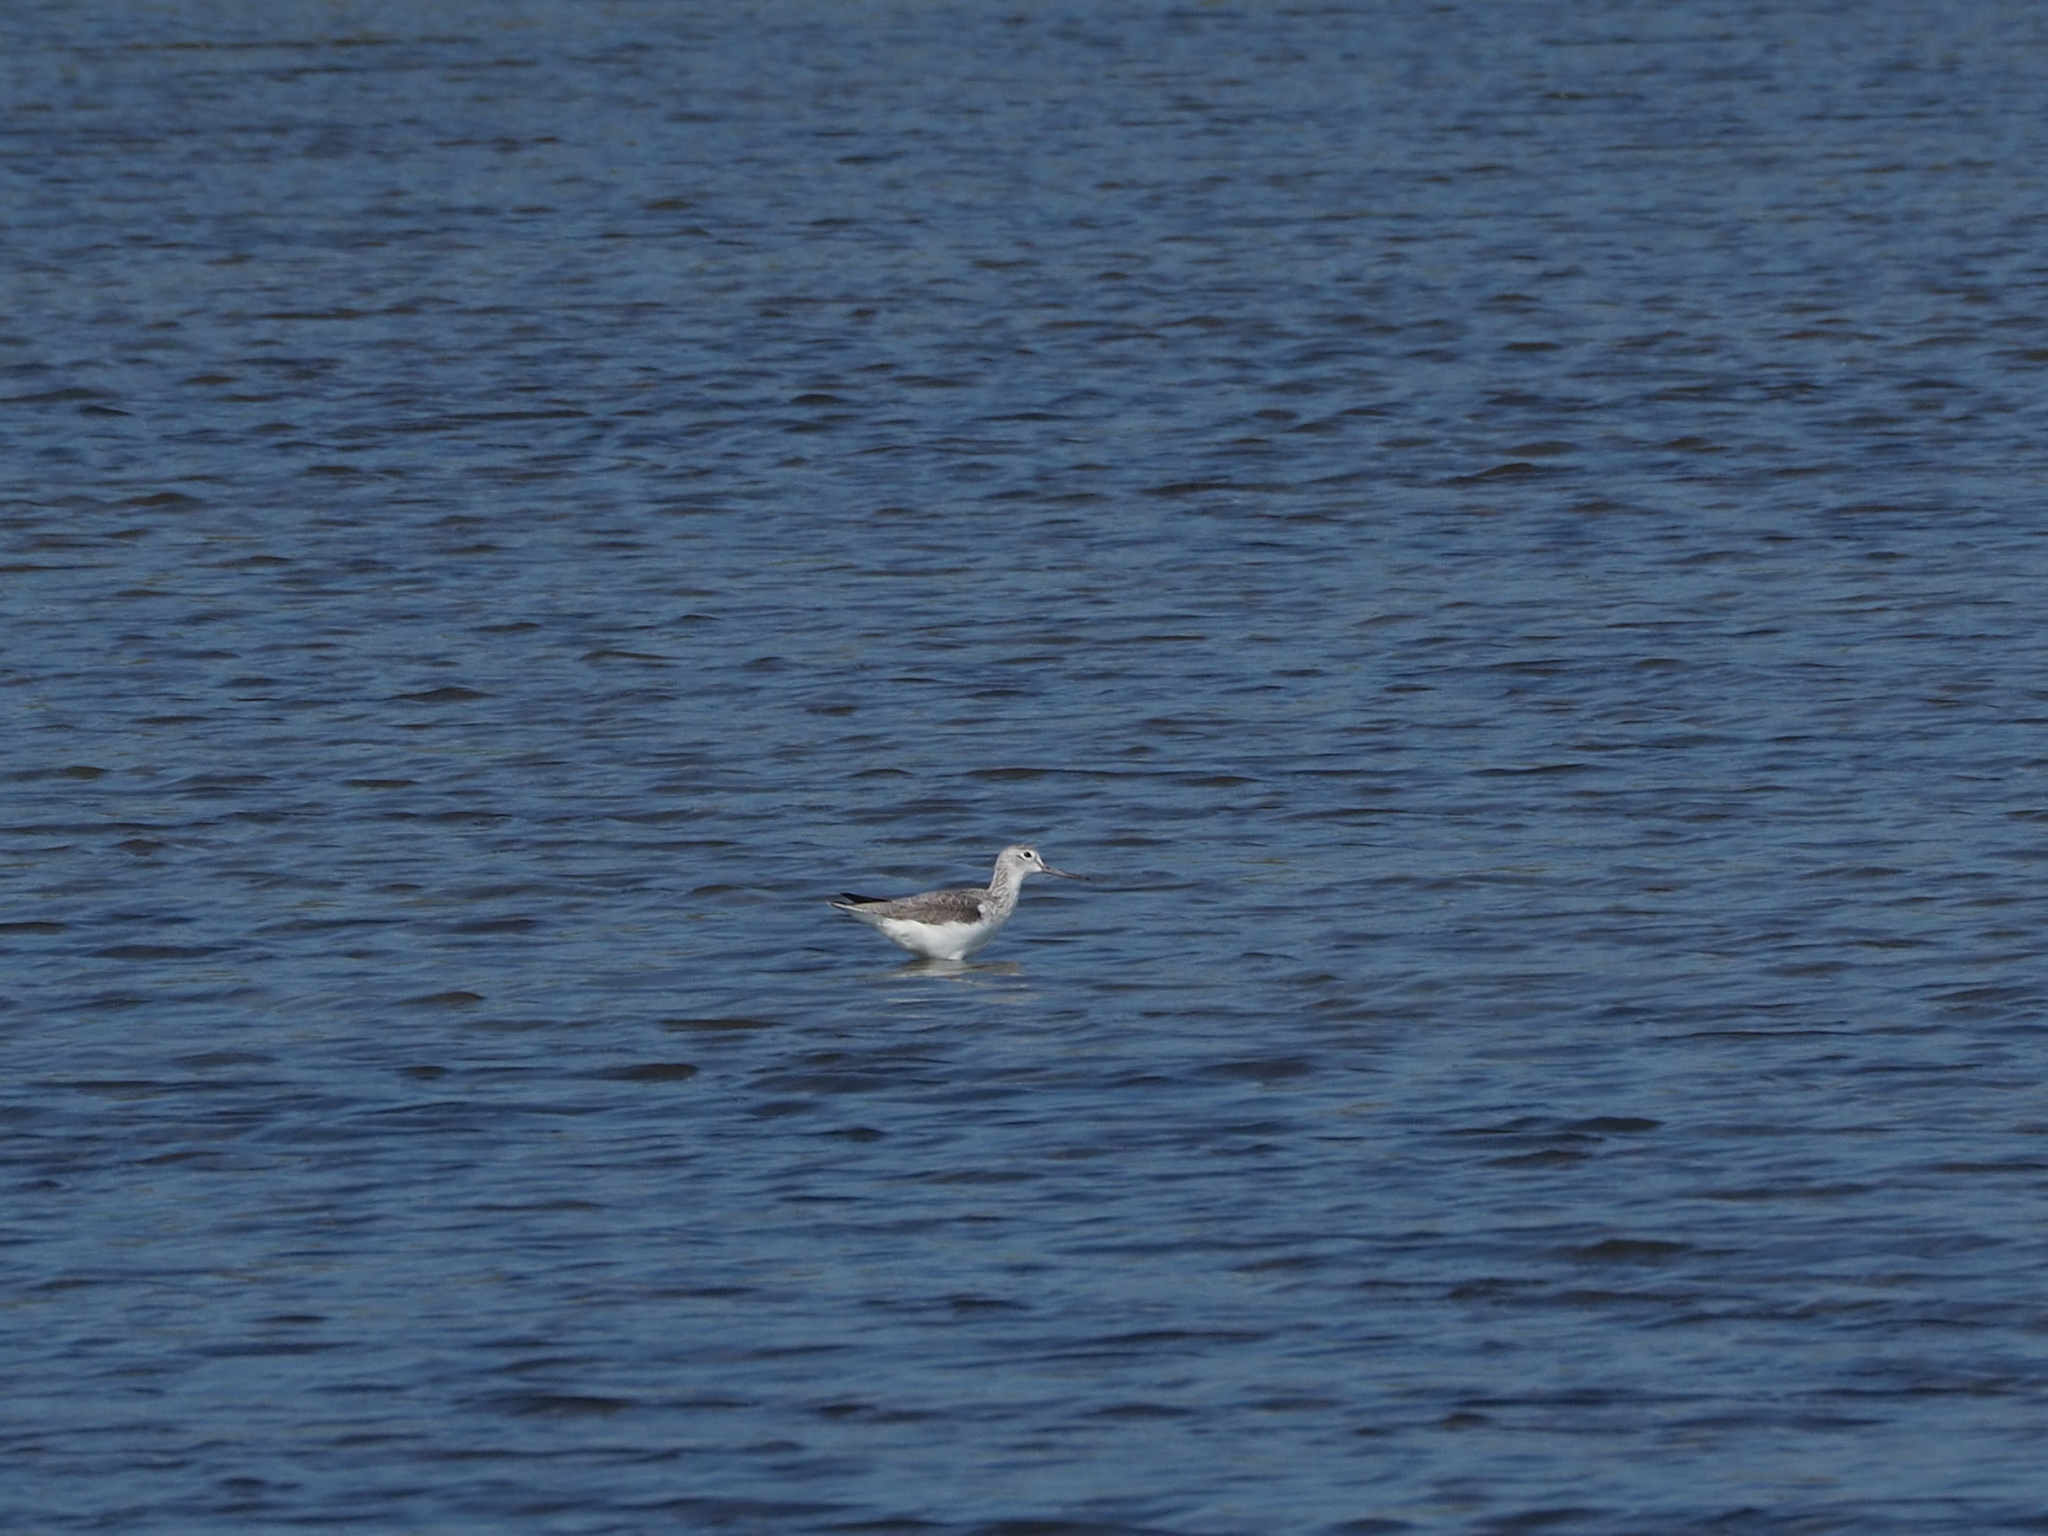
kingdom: Animalia
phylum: Chordata
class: Aves
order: Charadriiformes
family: Scolopacidae
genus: Tringa
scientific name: Tringa nebularia
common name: Common greenshank
